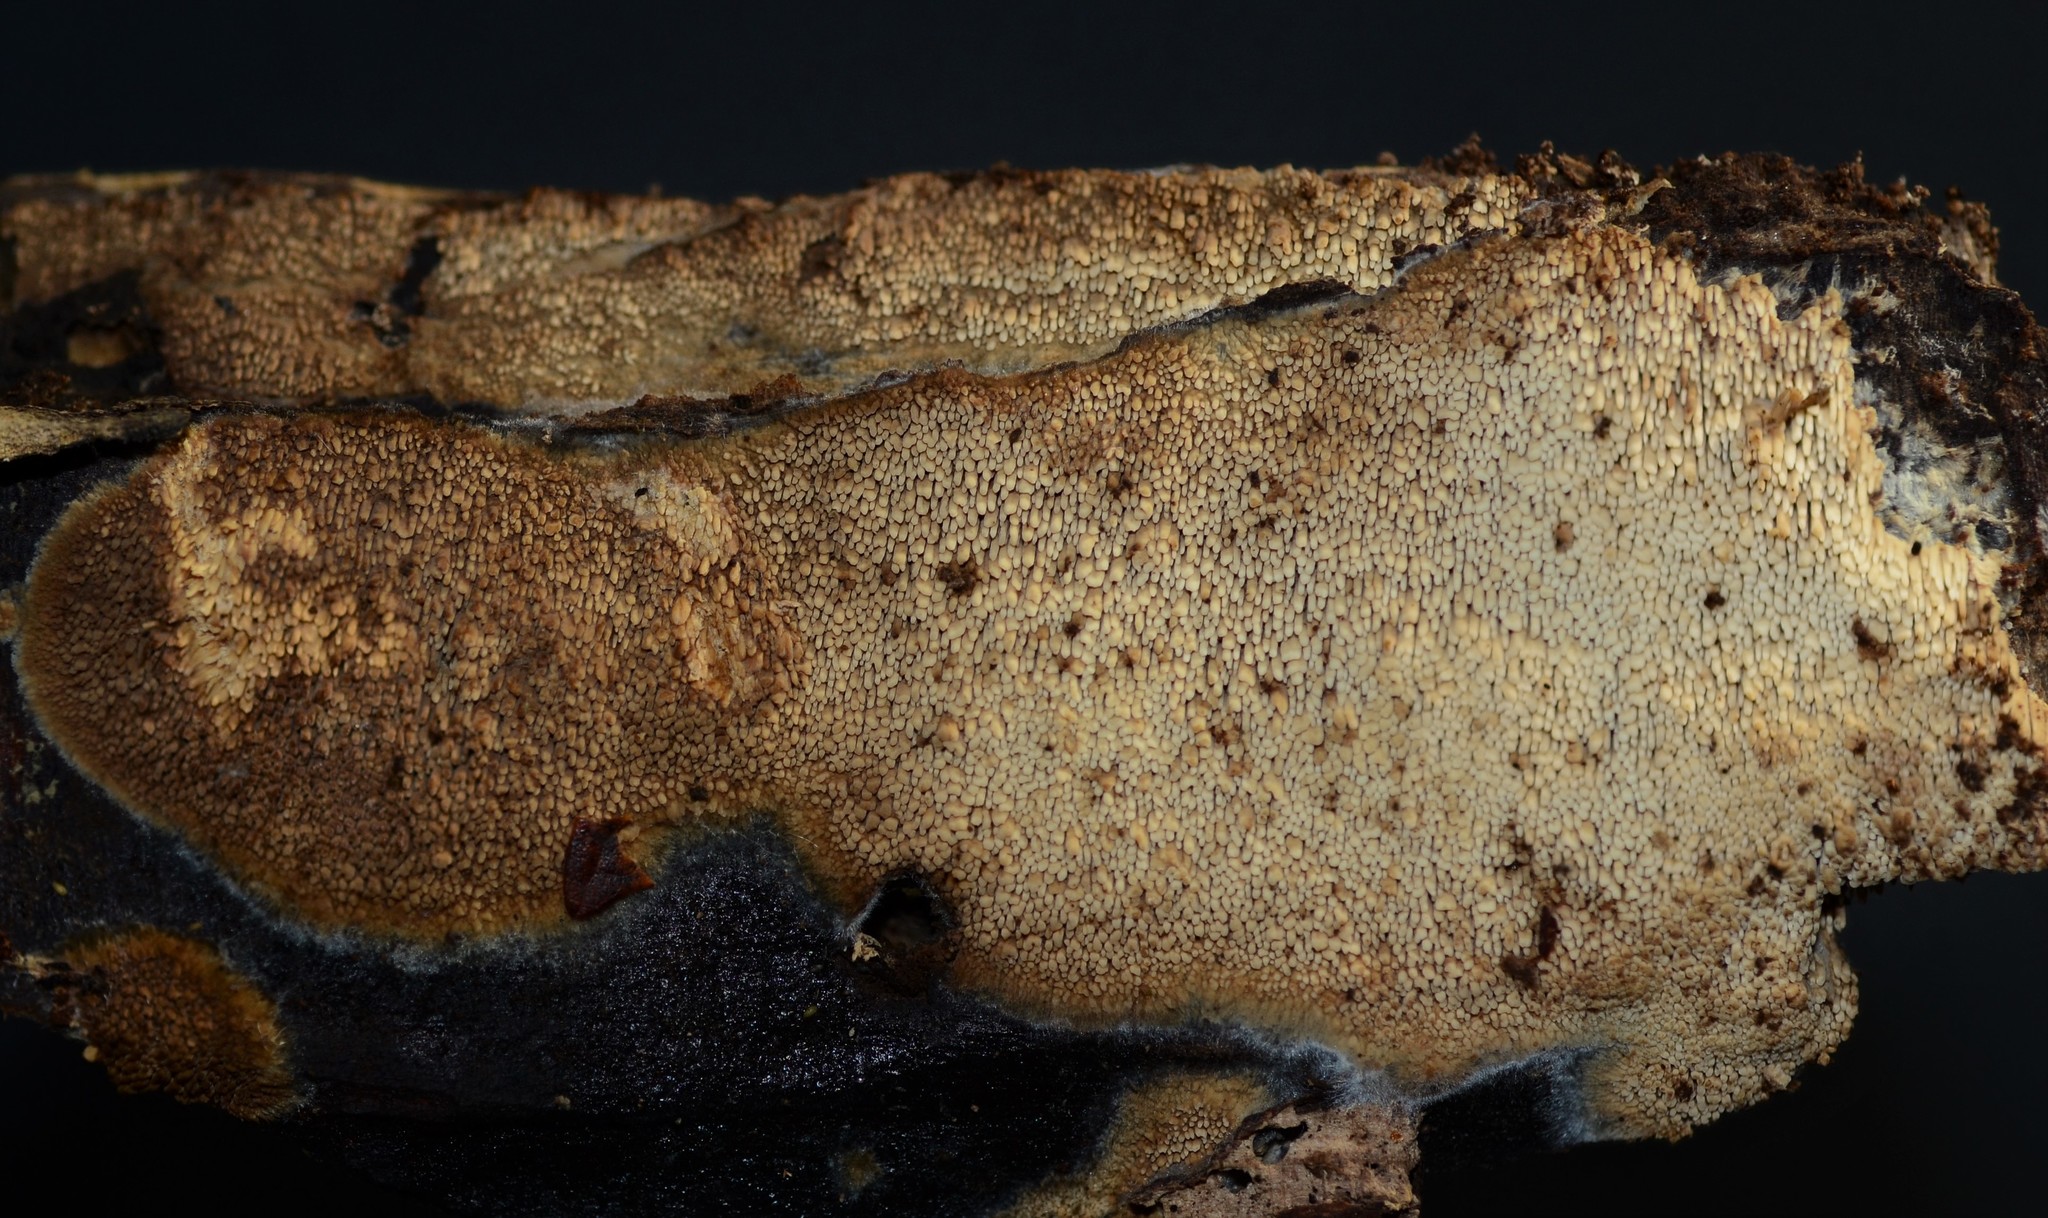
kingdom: Fungi
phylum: Basidiomycota
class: Agaricomycetes
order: Polyporales
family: Meruliaceae
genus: Mycoacia
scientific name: Mycoacia nothofagi
